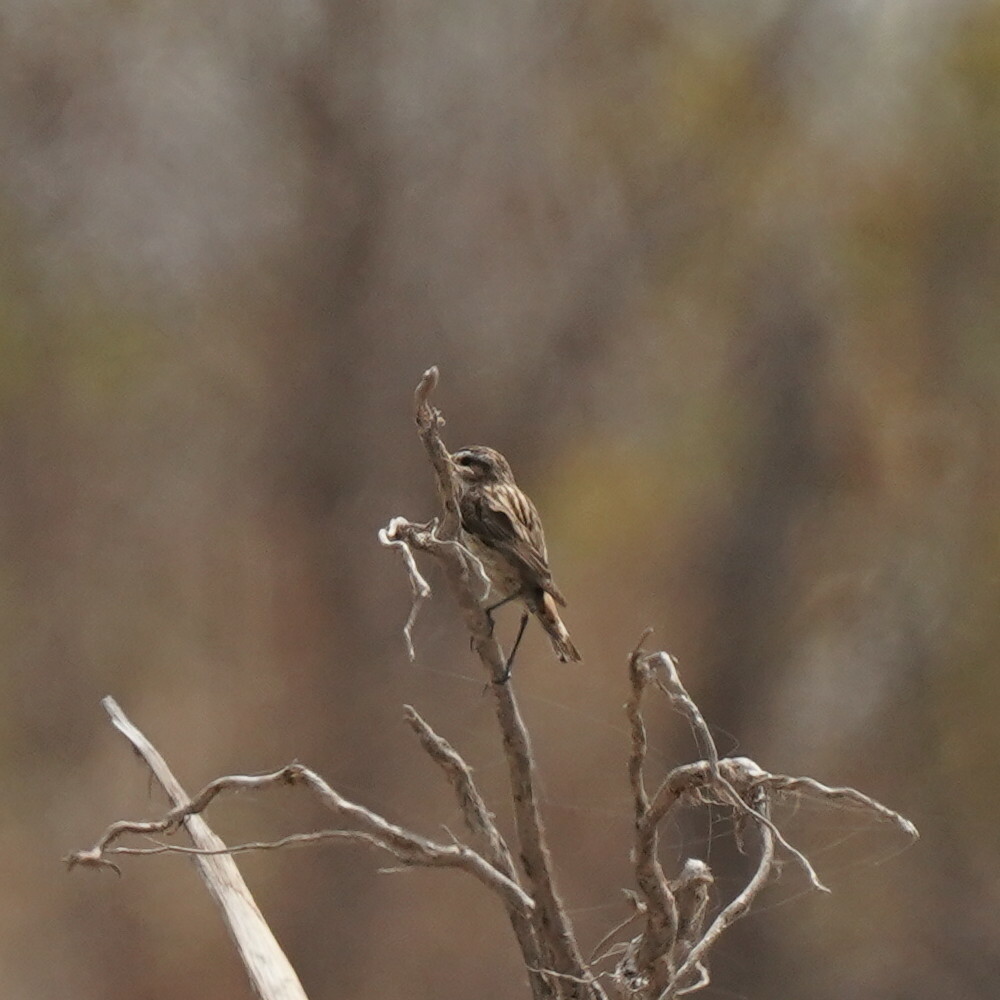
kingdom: Animalia
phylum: Chordata
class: Aves
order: Passeriformes
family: Muscicapidae
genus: Saxicola
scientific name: Saxicola rubetra
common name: Whinchat
